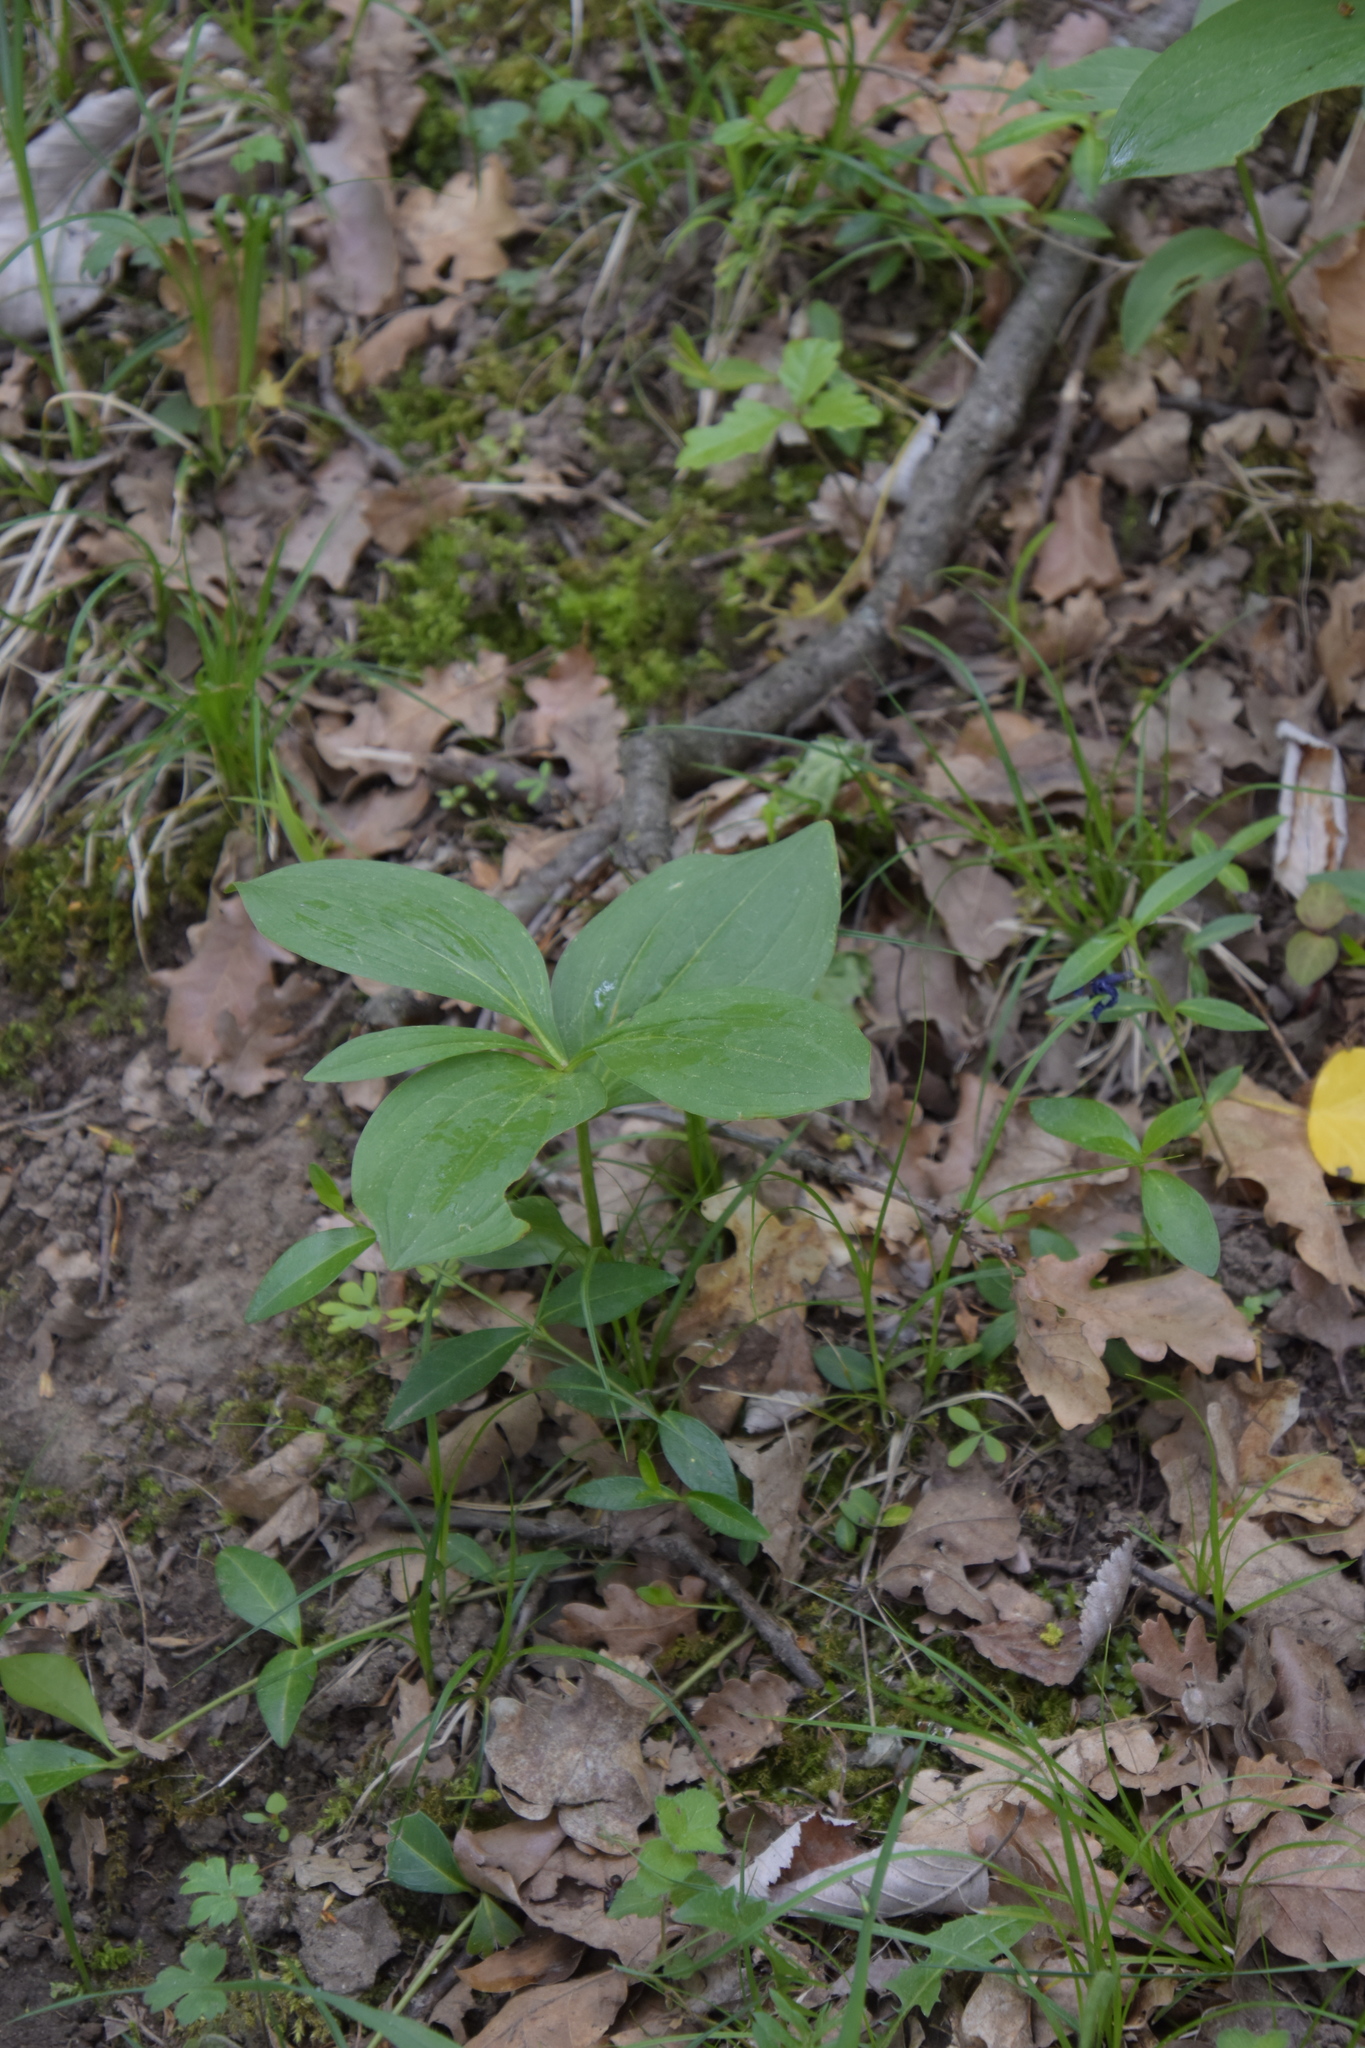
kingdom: Plantae
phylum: Tracheophyta
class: Liliopsida
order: Liliales
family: Melanthiaceae
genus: Paris
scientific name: Paris quadrifolia
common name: Herb-paris
